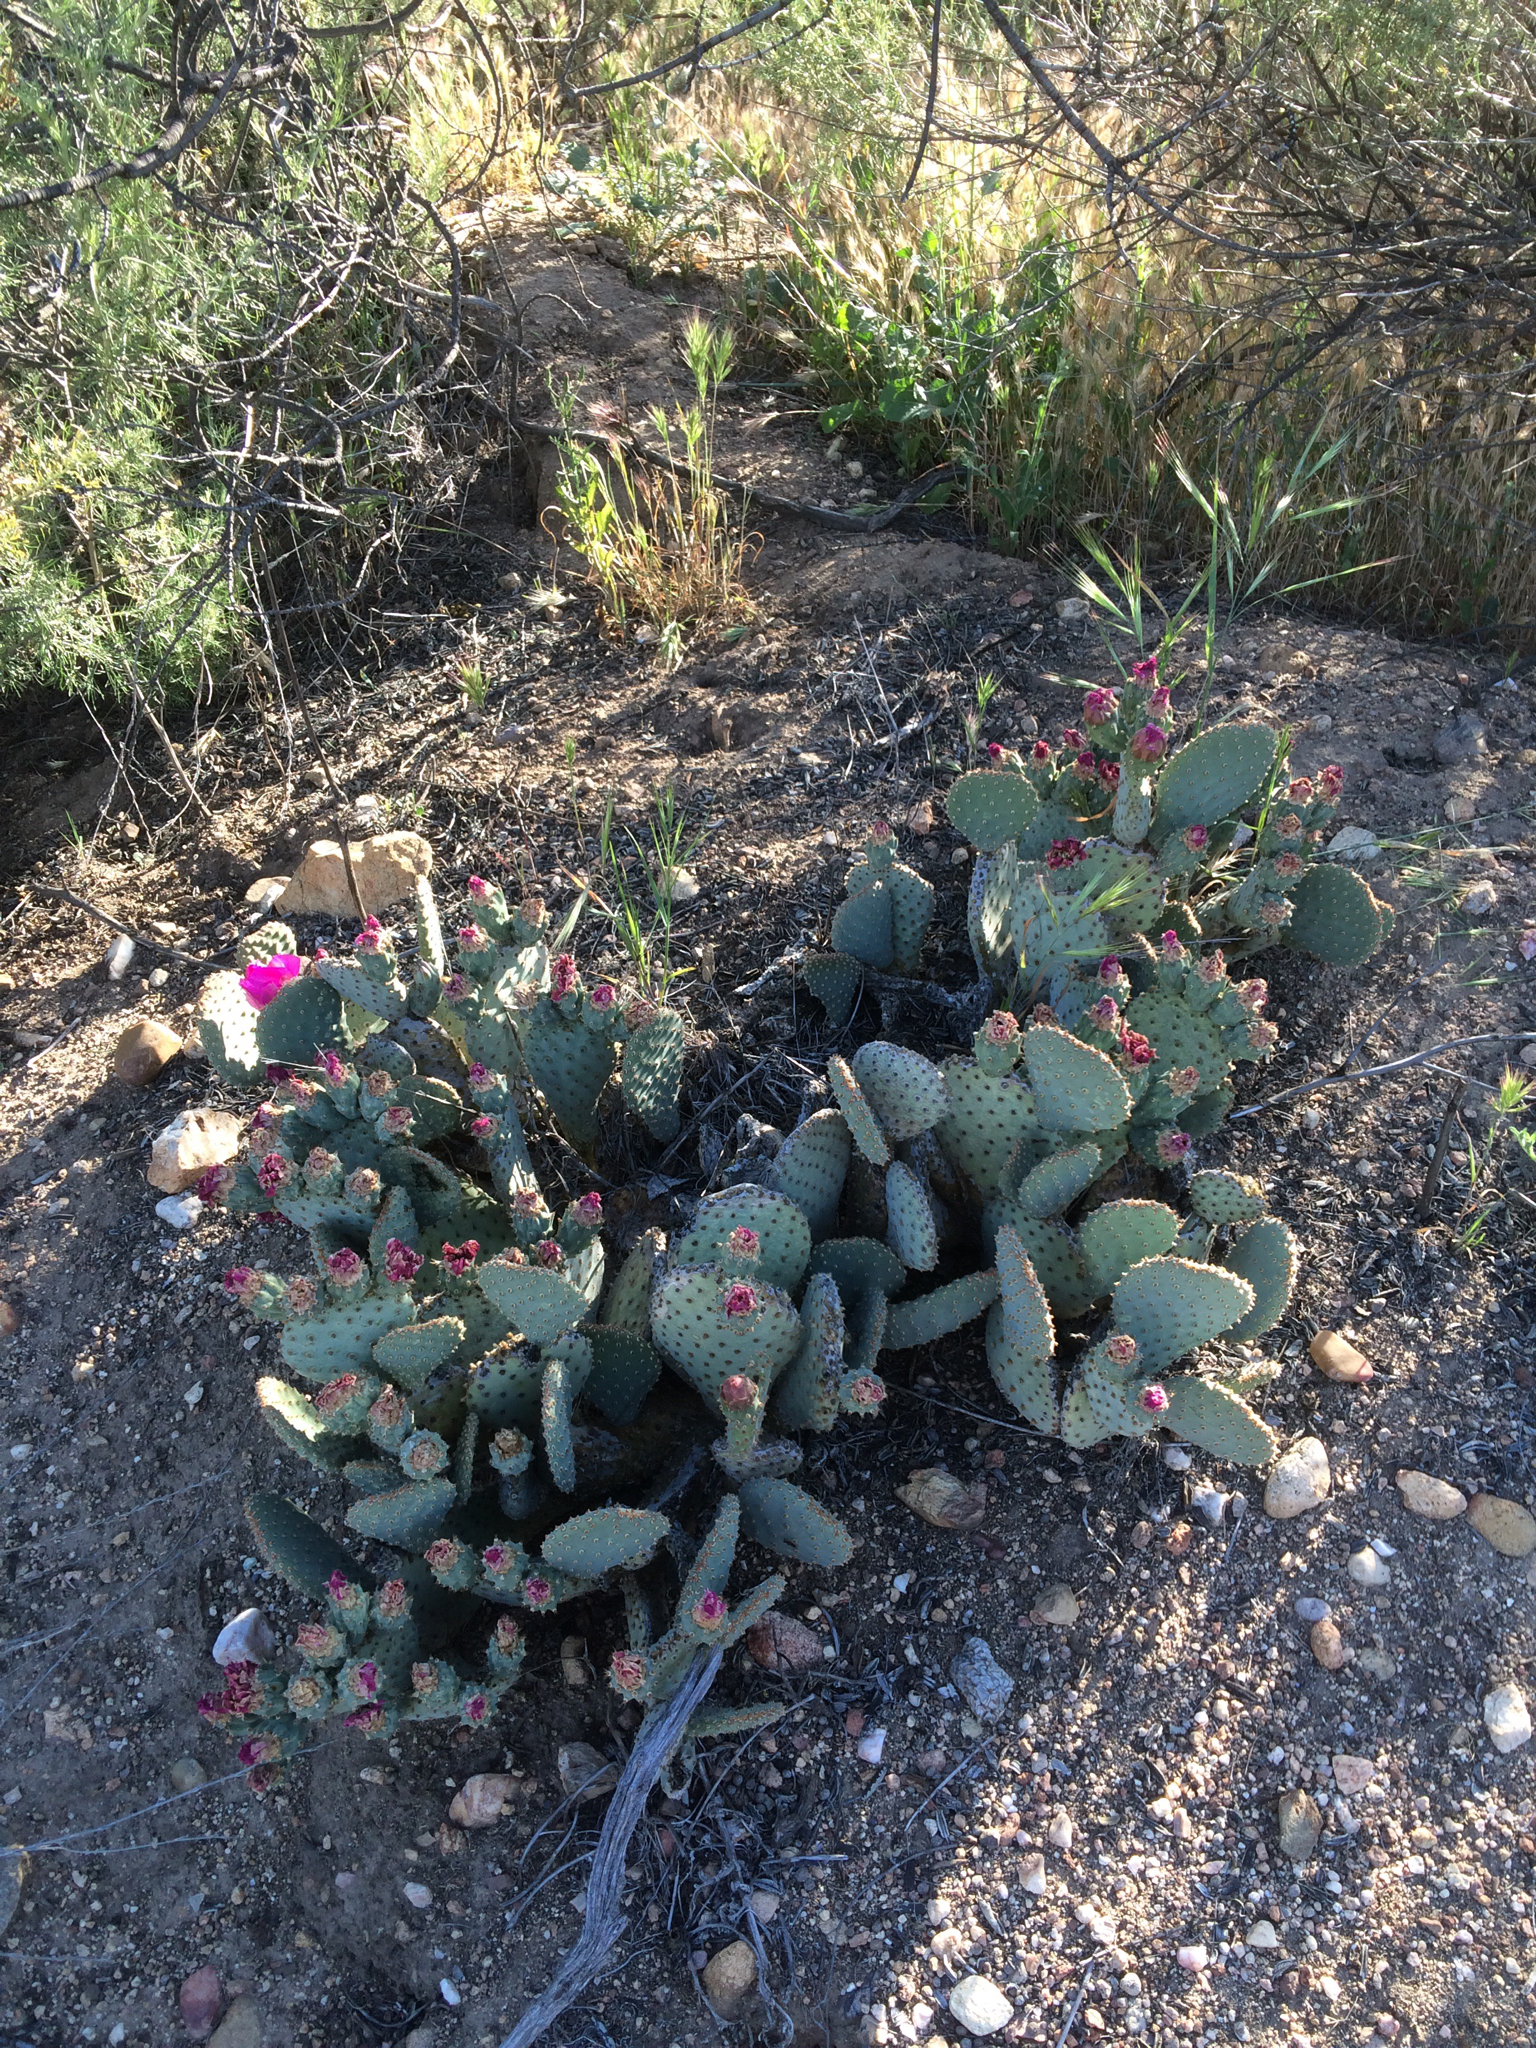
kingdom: Plantae
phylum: Tracheophyta
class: Magnoliopsida
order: Caryophyllales
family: Cactaceae
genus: Opuntia
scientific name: Opuntia basilaris
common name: Beavertail prickly-pear
